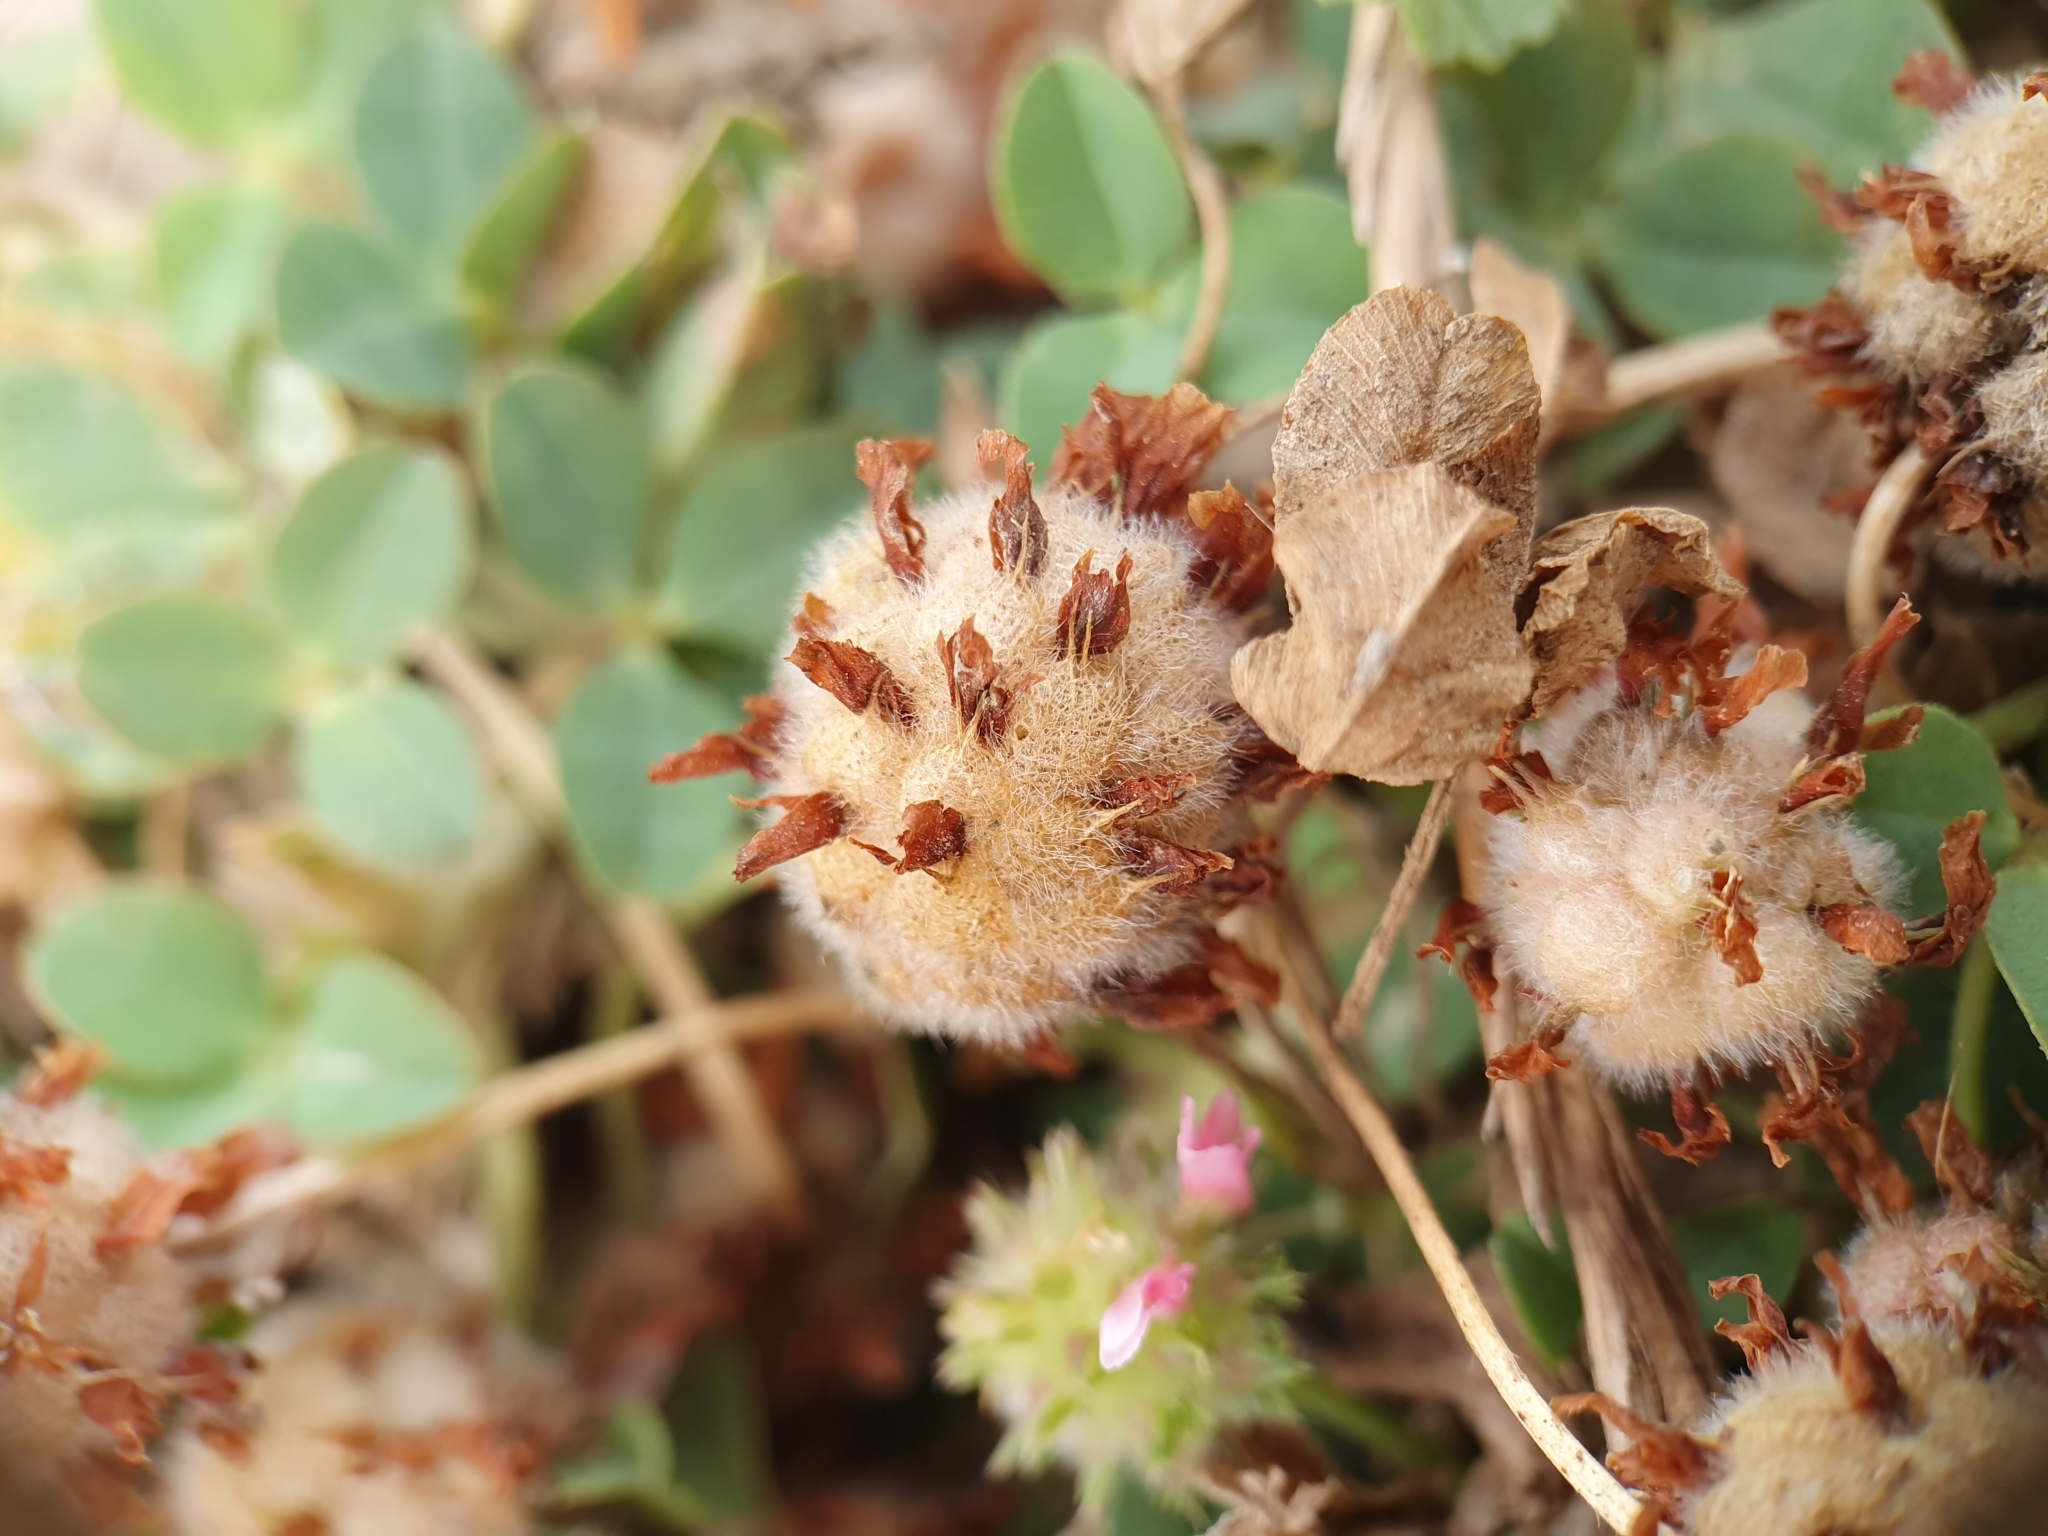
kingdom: Plantae
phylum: Tracheophyta
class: Magnoliopsida
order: Fabales
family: Fabaceae
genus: Trifolium
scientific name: Trifolium fragiferum
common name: Strawberry clover
